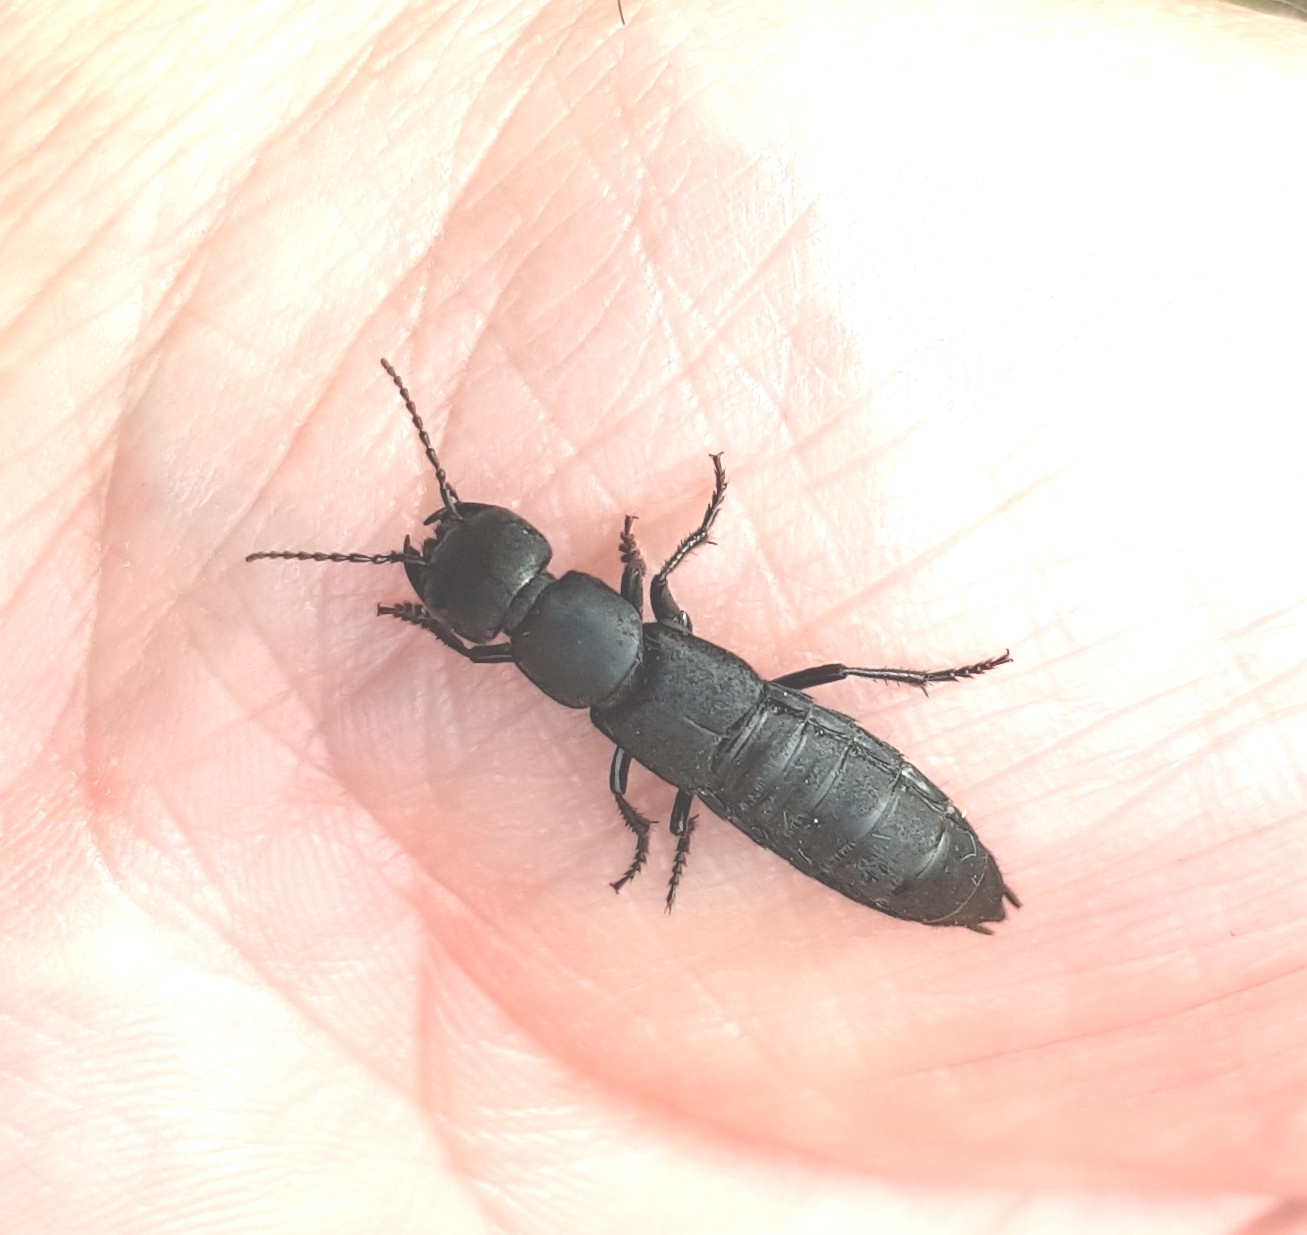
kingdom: Animalia
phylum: Arthropoda
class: Insecta
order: Coleoptera
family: Staphylinidae
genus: Ocypus
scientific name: Ocypus olens
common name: Devil's coach-horse
